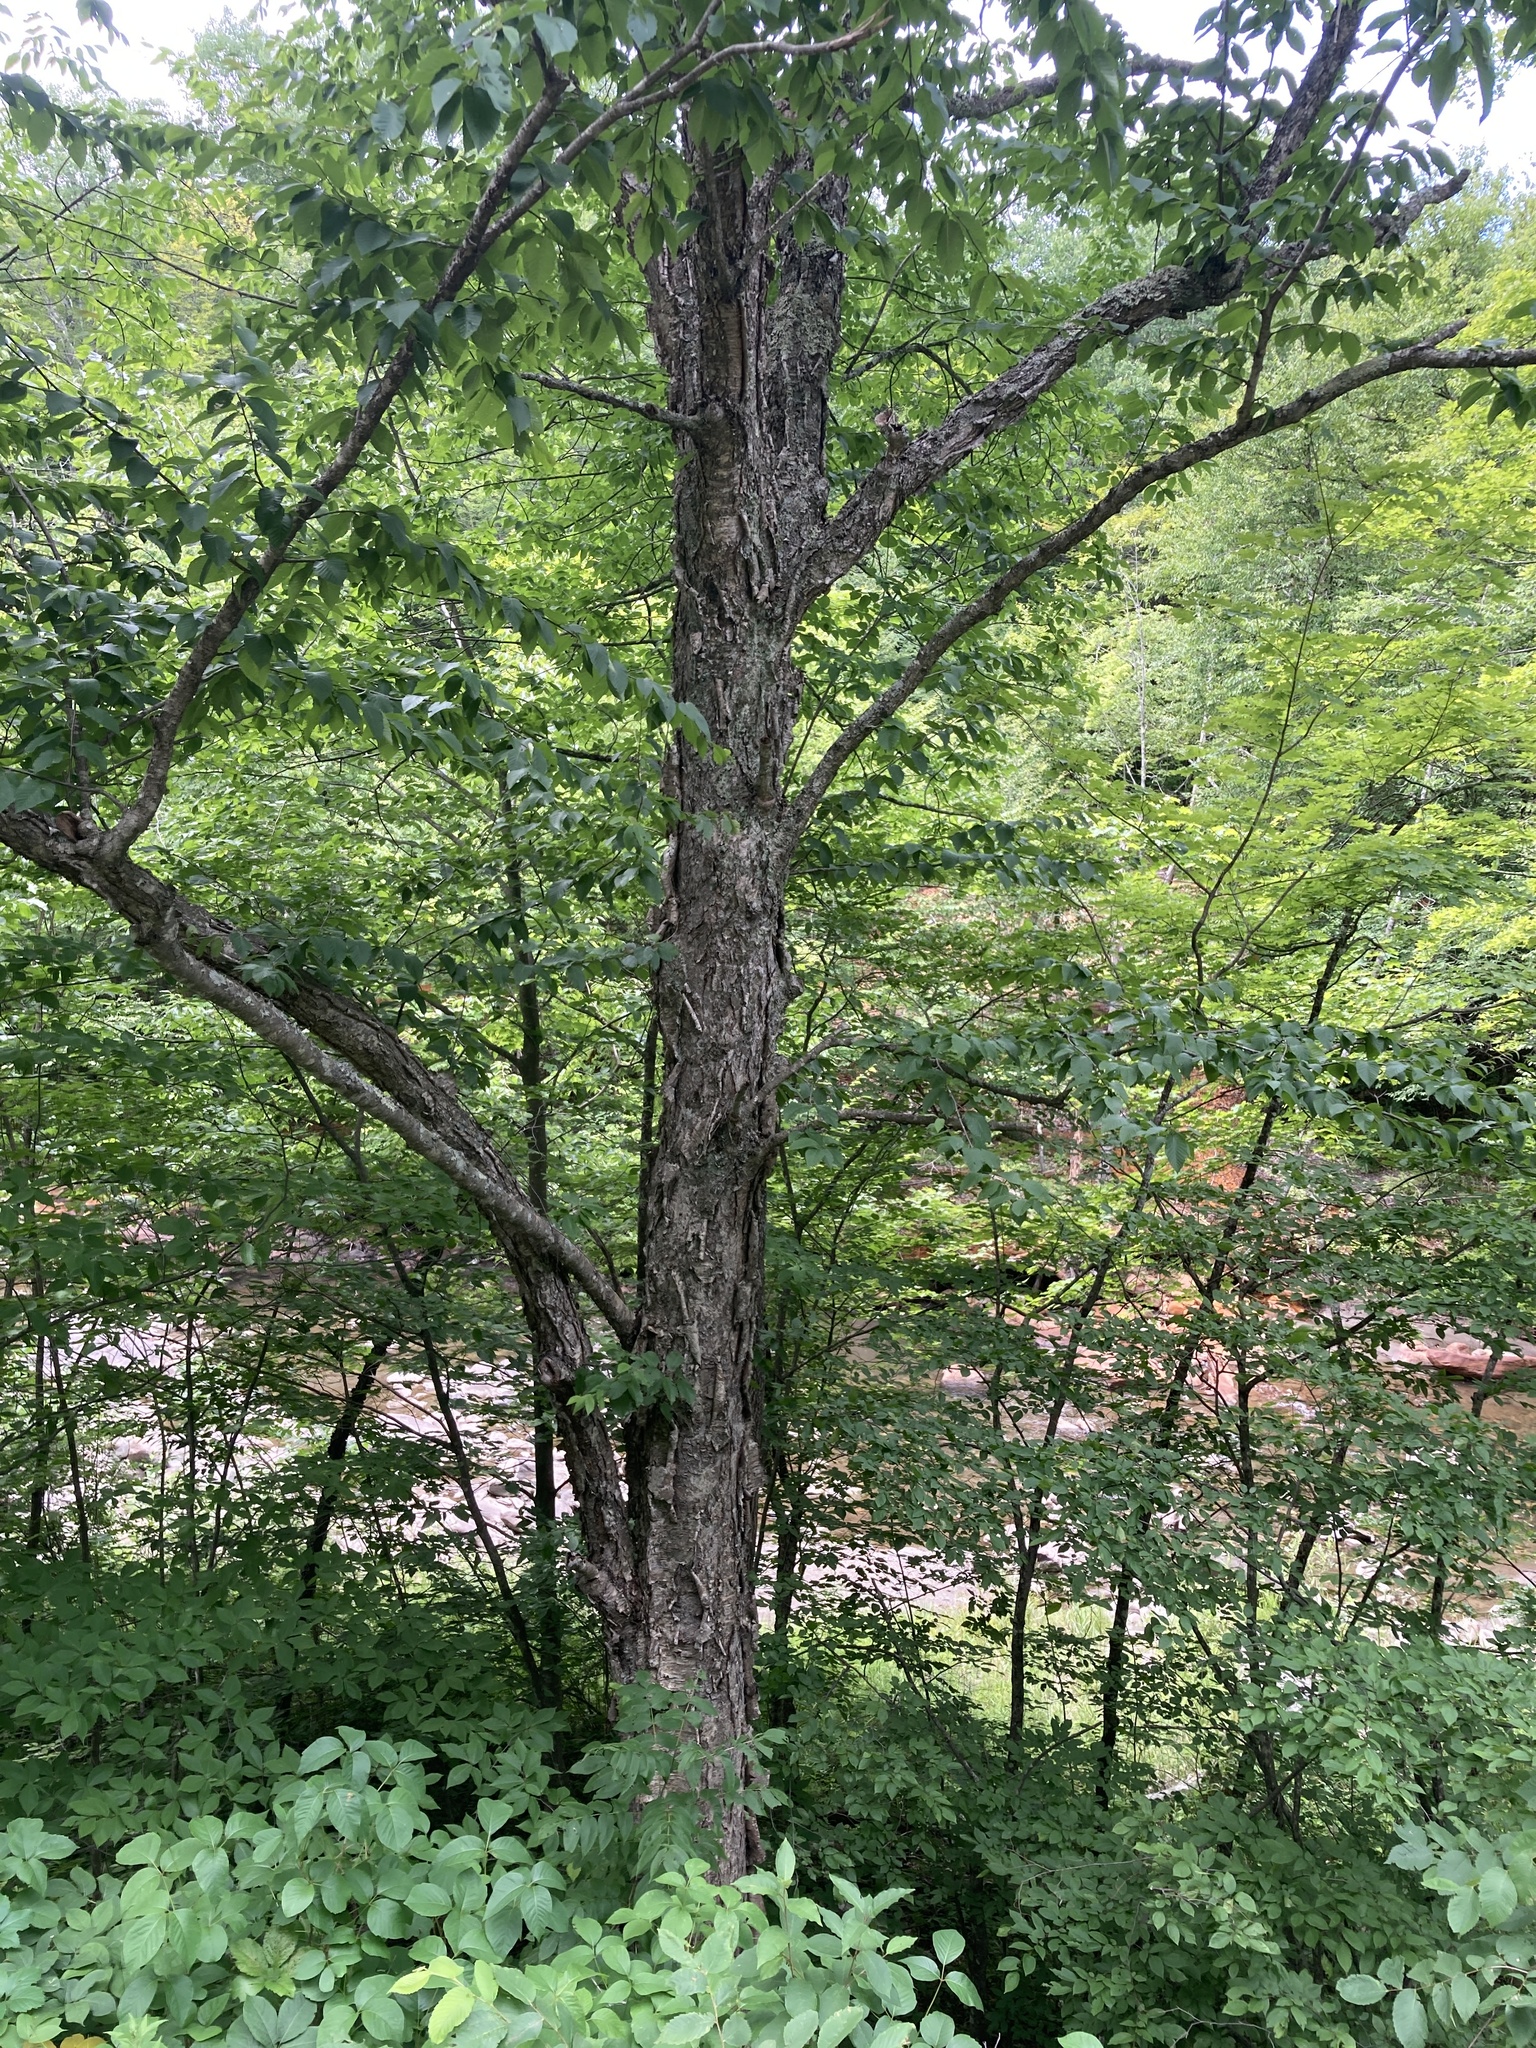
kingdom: Plantae
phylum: Tracheophyta
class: Magnoliopsida
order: Fagales
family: Betulaceae
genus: Betula
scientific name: Betula alleghaniensis
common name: Yellow birch
